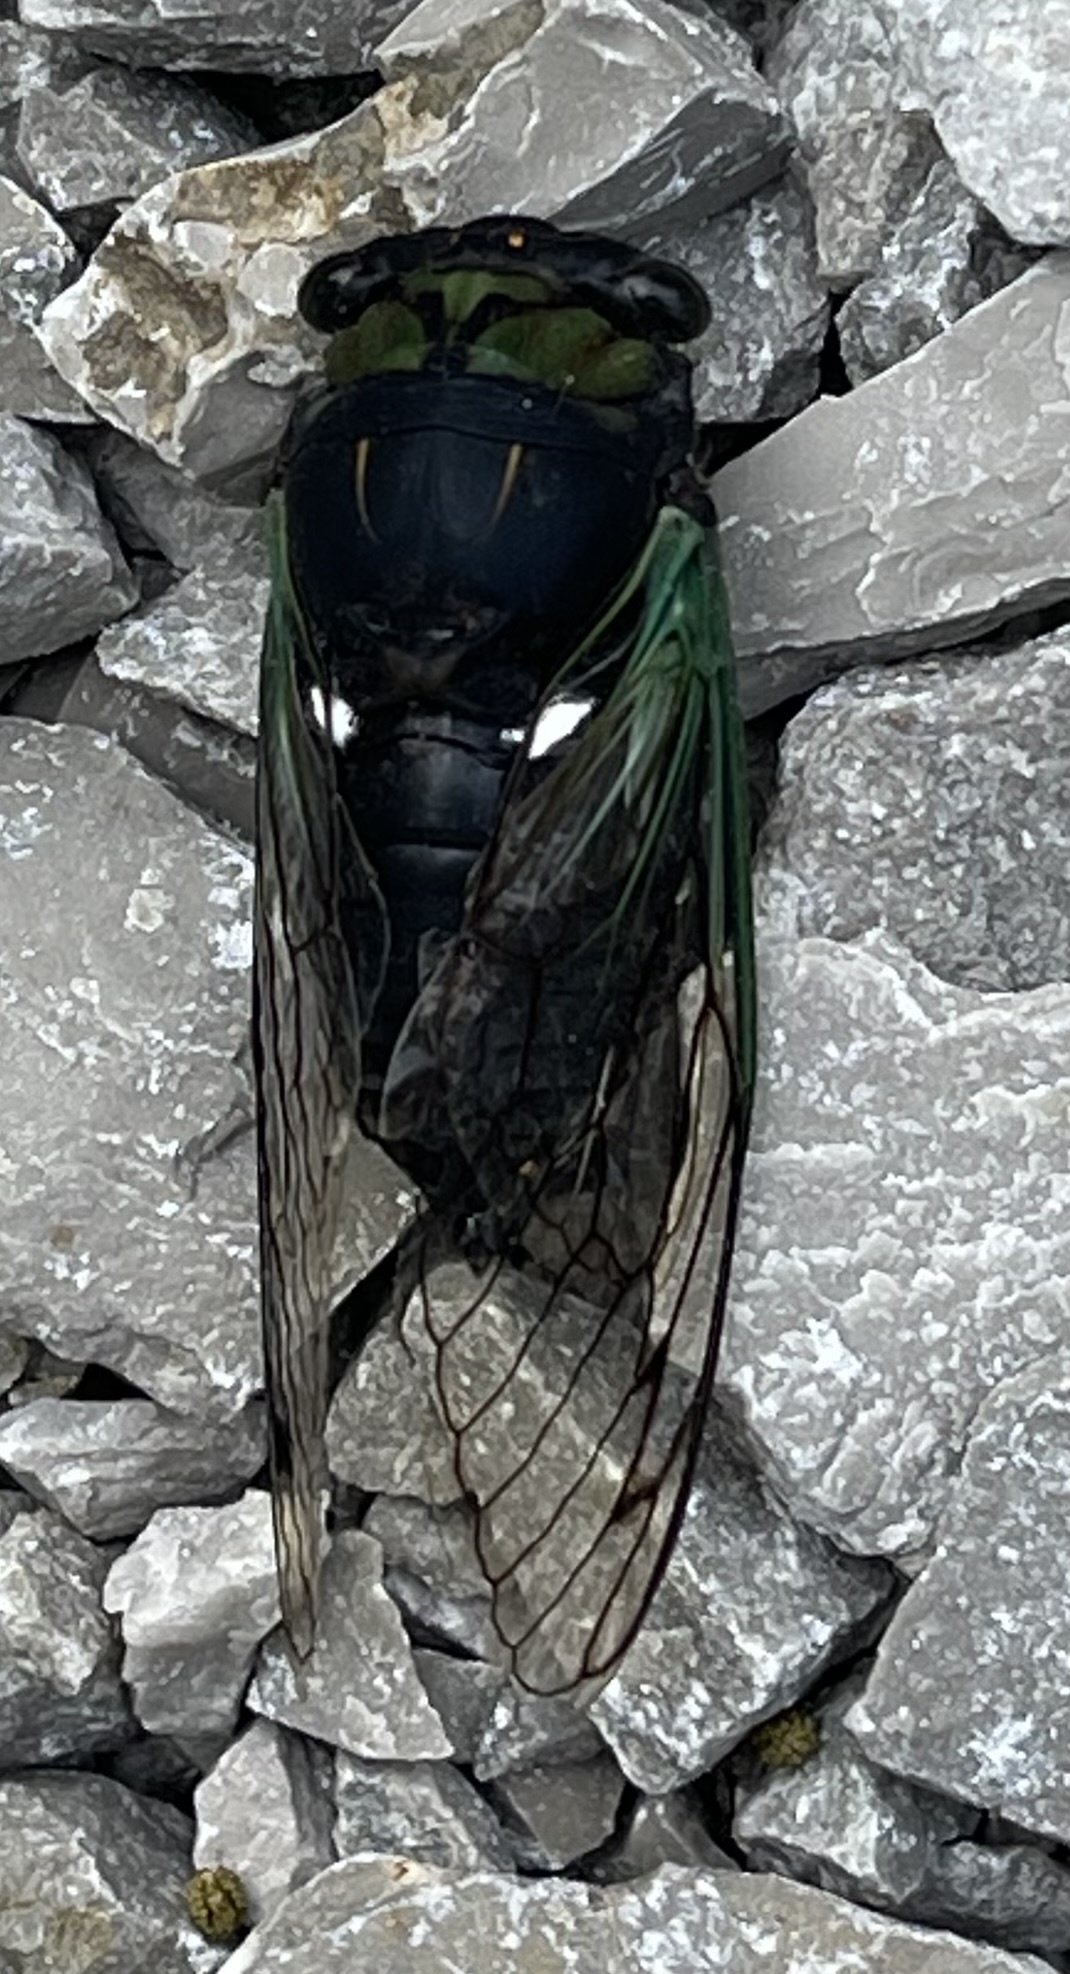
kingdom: Animalia
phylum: Arthropoda
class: Insecta
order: Hemiptera
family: Cicadidae
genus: Neotibicen
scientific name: Neotibicen tibicen
